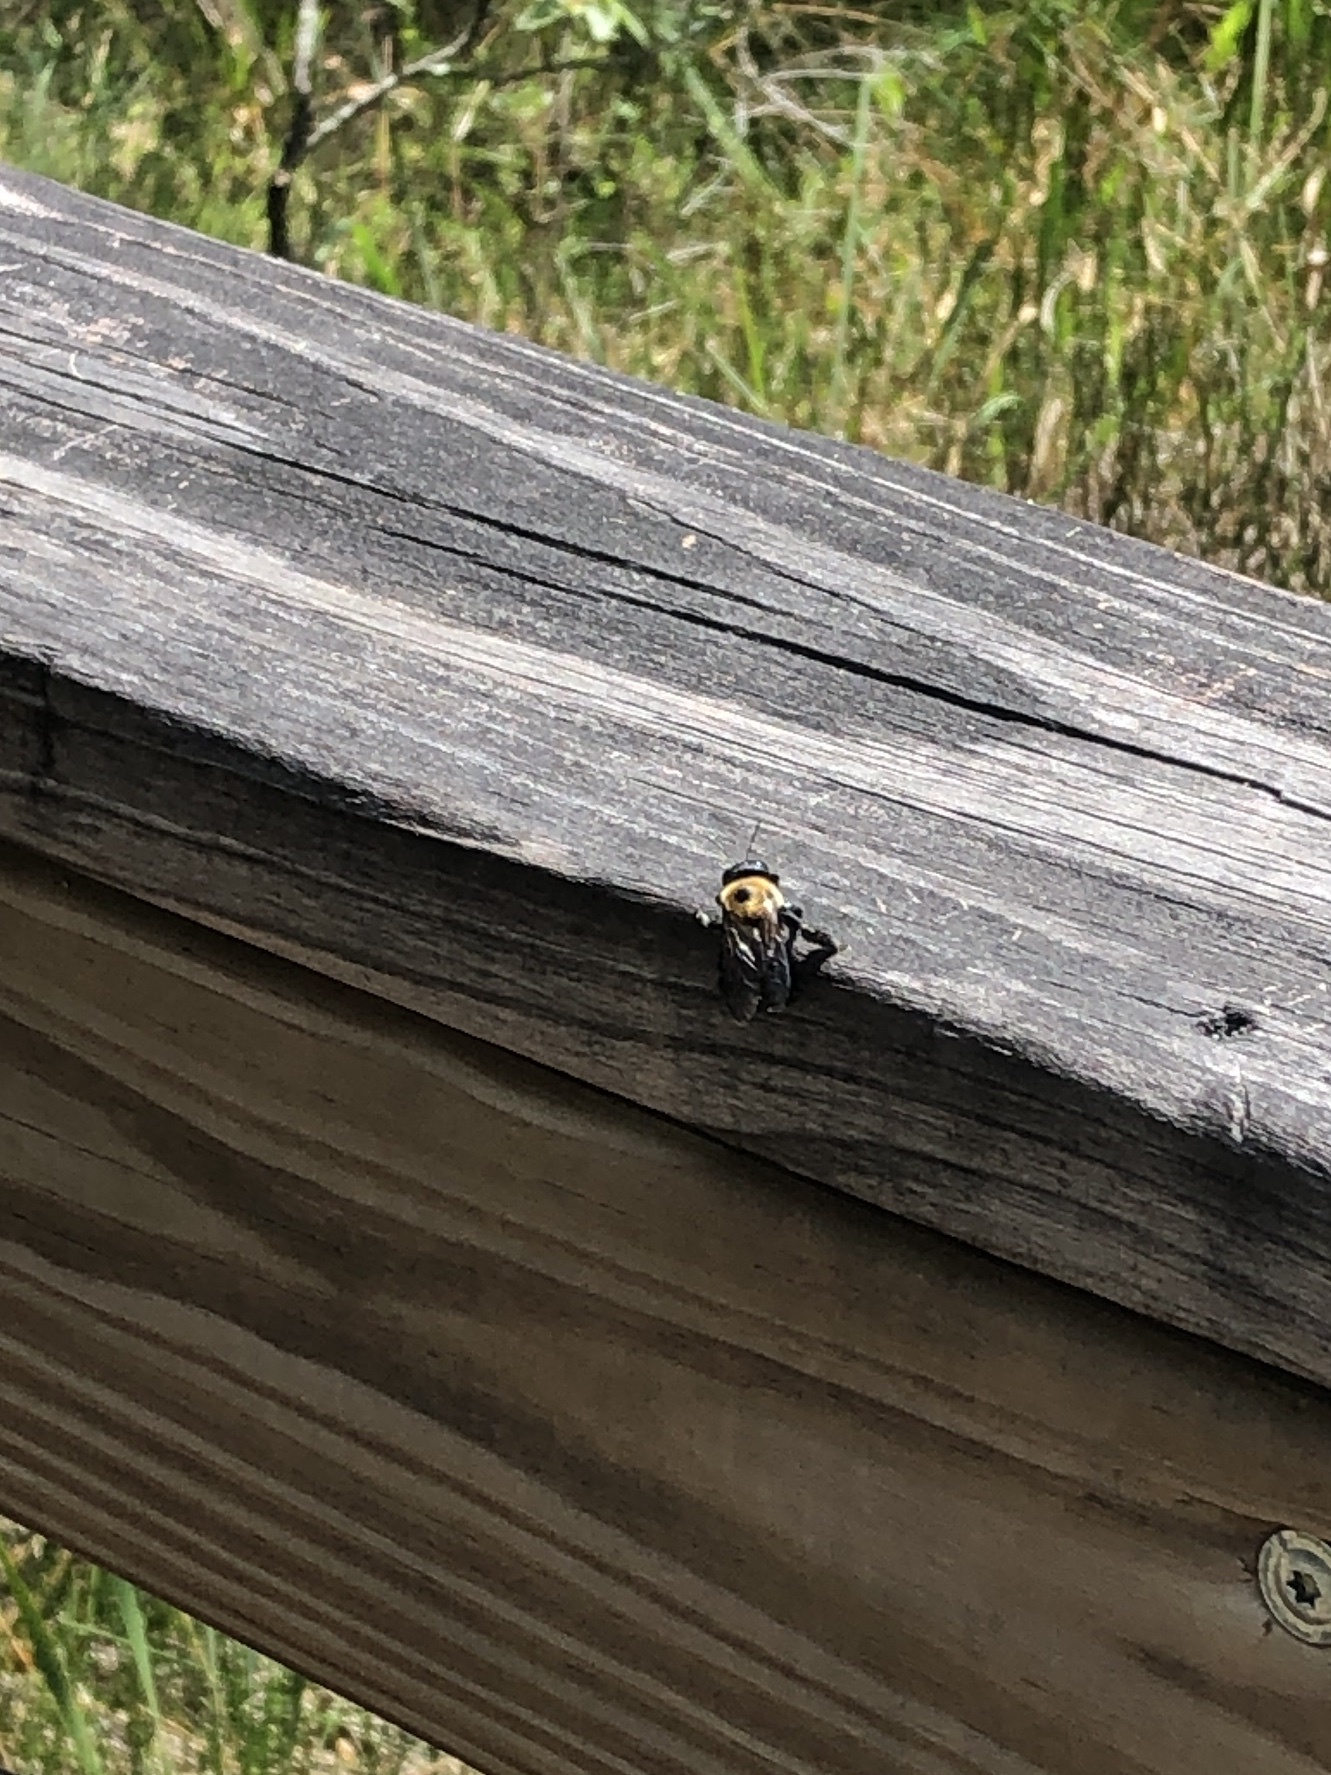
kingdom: Animalia
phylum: Arthropoda
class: Insecta
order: Hymenoptera
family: Apidae
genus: Xylocopa
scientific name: Xylocopa virginica
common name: Carpenter bee
